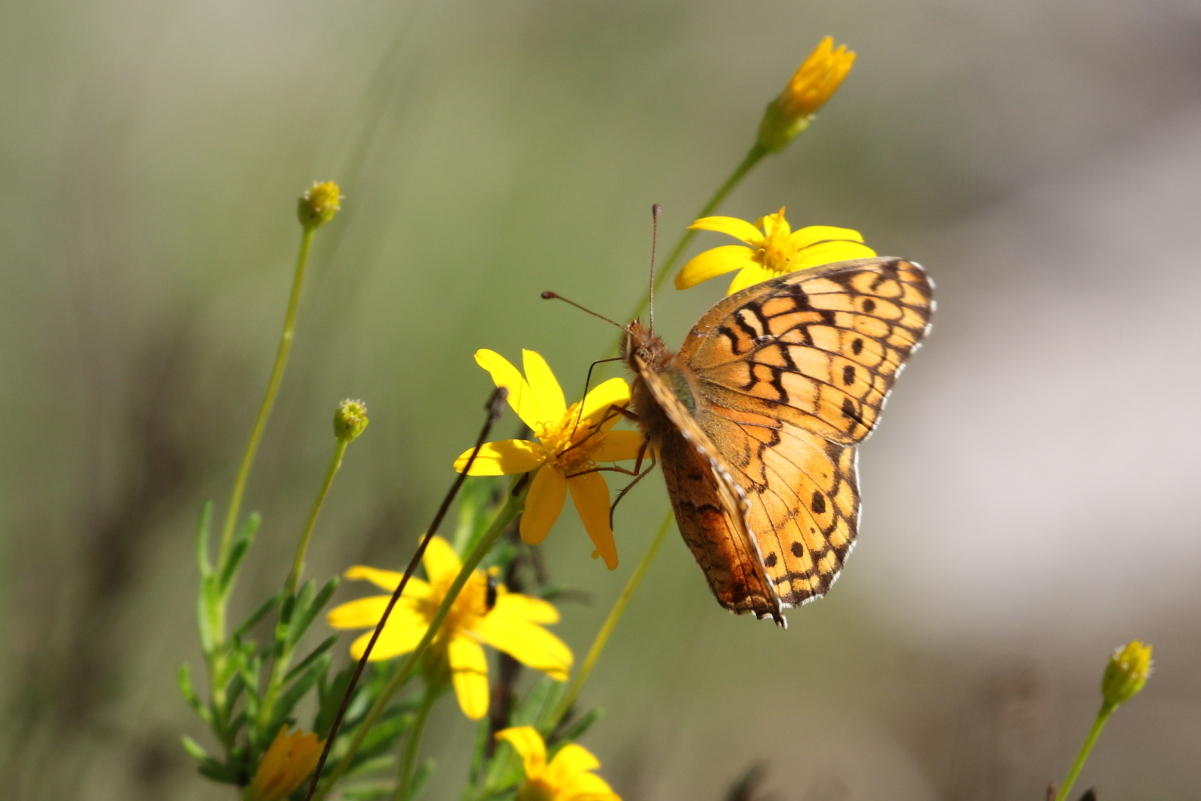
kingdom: Animalia
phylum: Arthropoda
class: Insecta
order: Lepidoptera
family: Nymphalidae
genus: Euptoieta
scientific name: Euptoieta claudia
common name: Variegated fritillary
